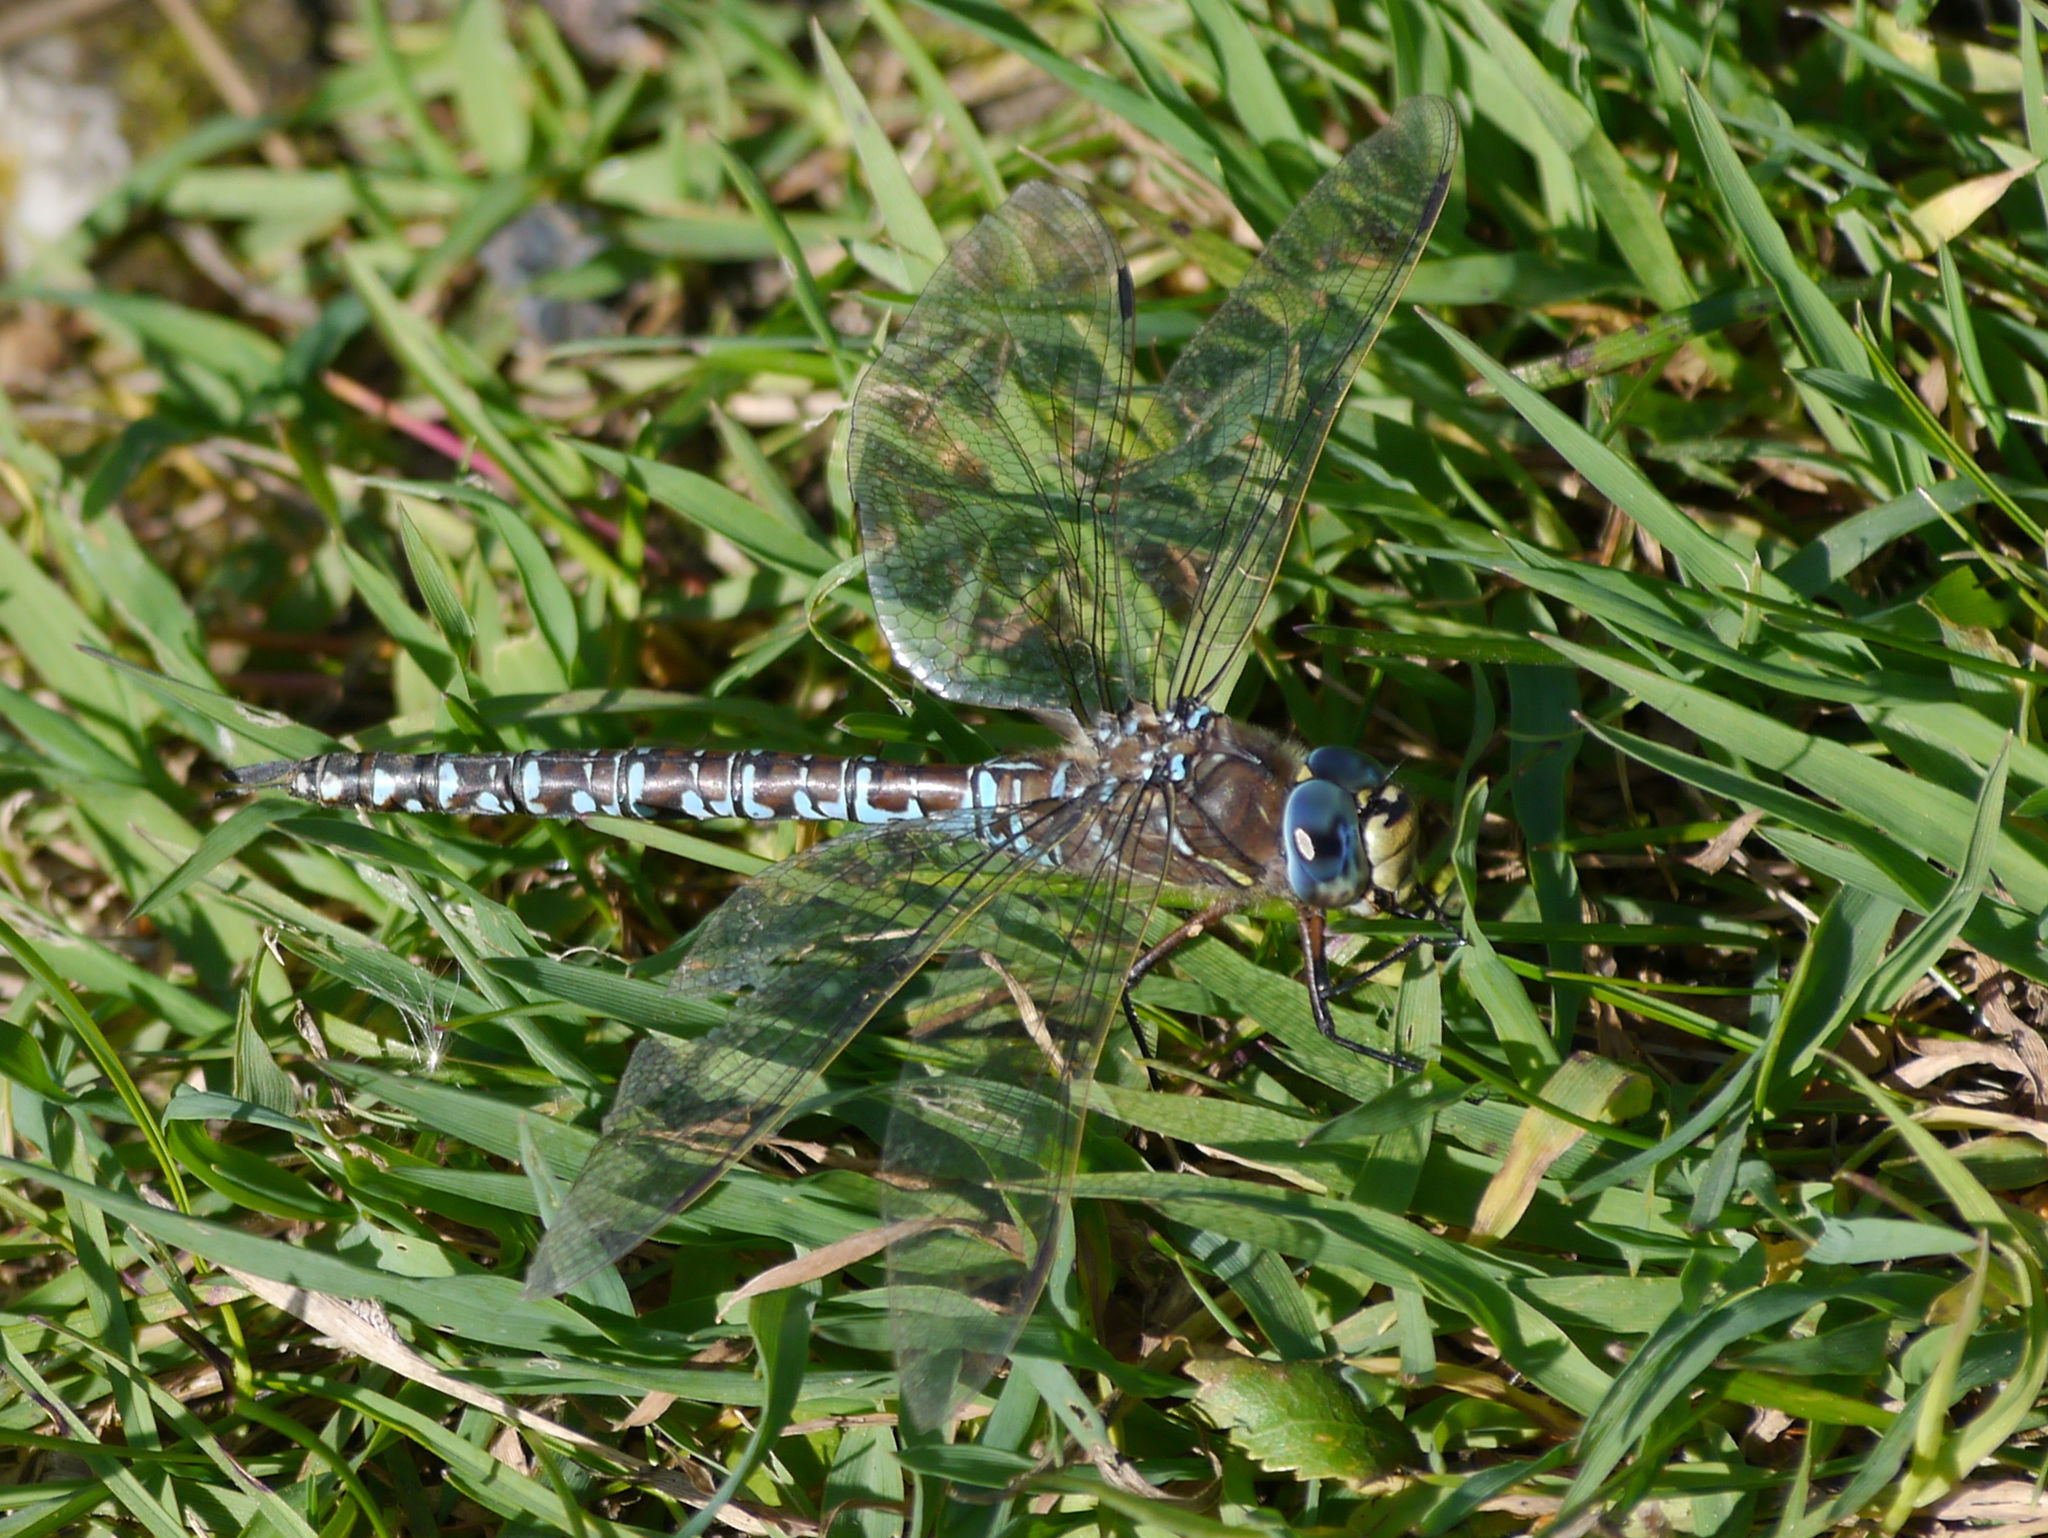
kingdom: Animalia
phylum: Arthropoda
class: Insecta
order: Odonata
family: Aeshnidae
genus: Aeshna
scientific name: Aeshna interrupta
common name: Variable darner
